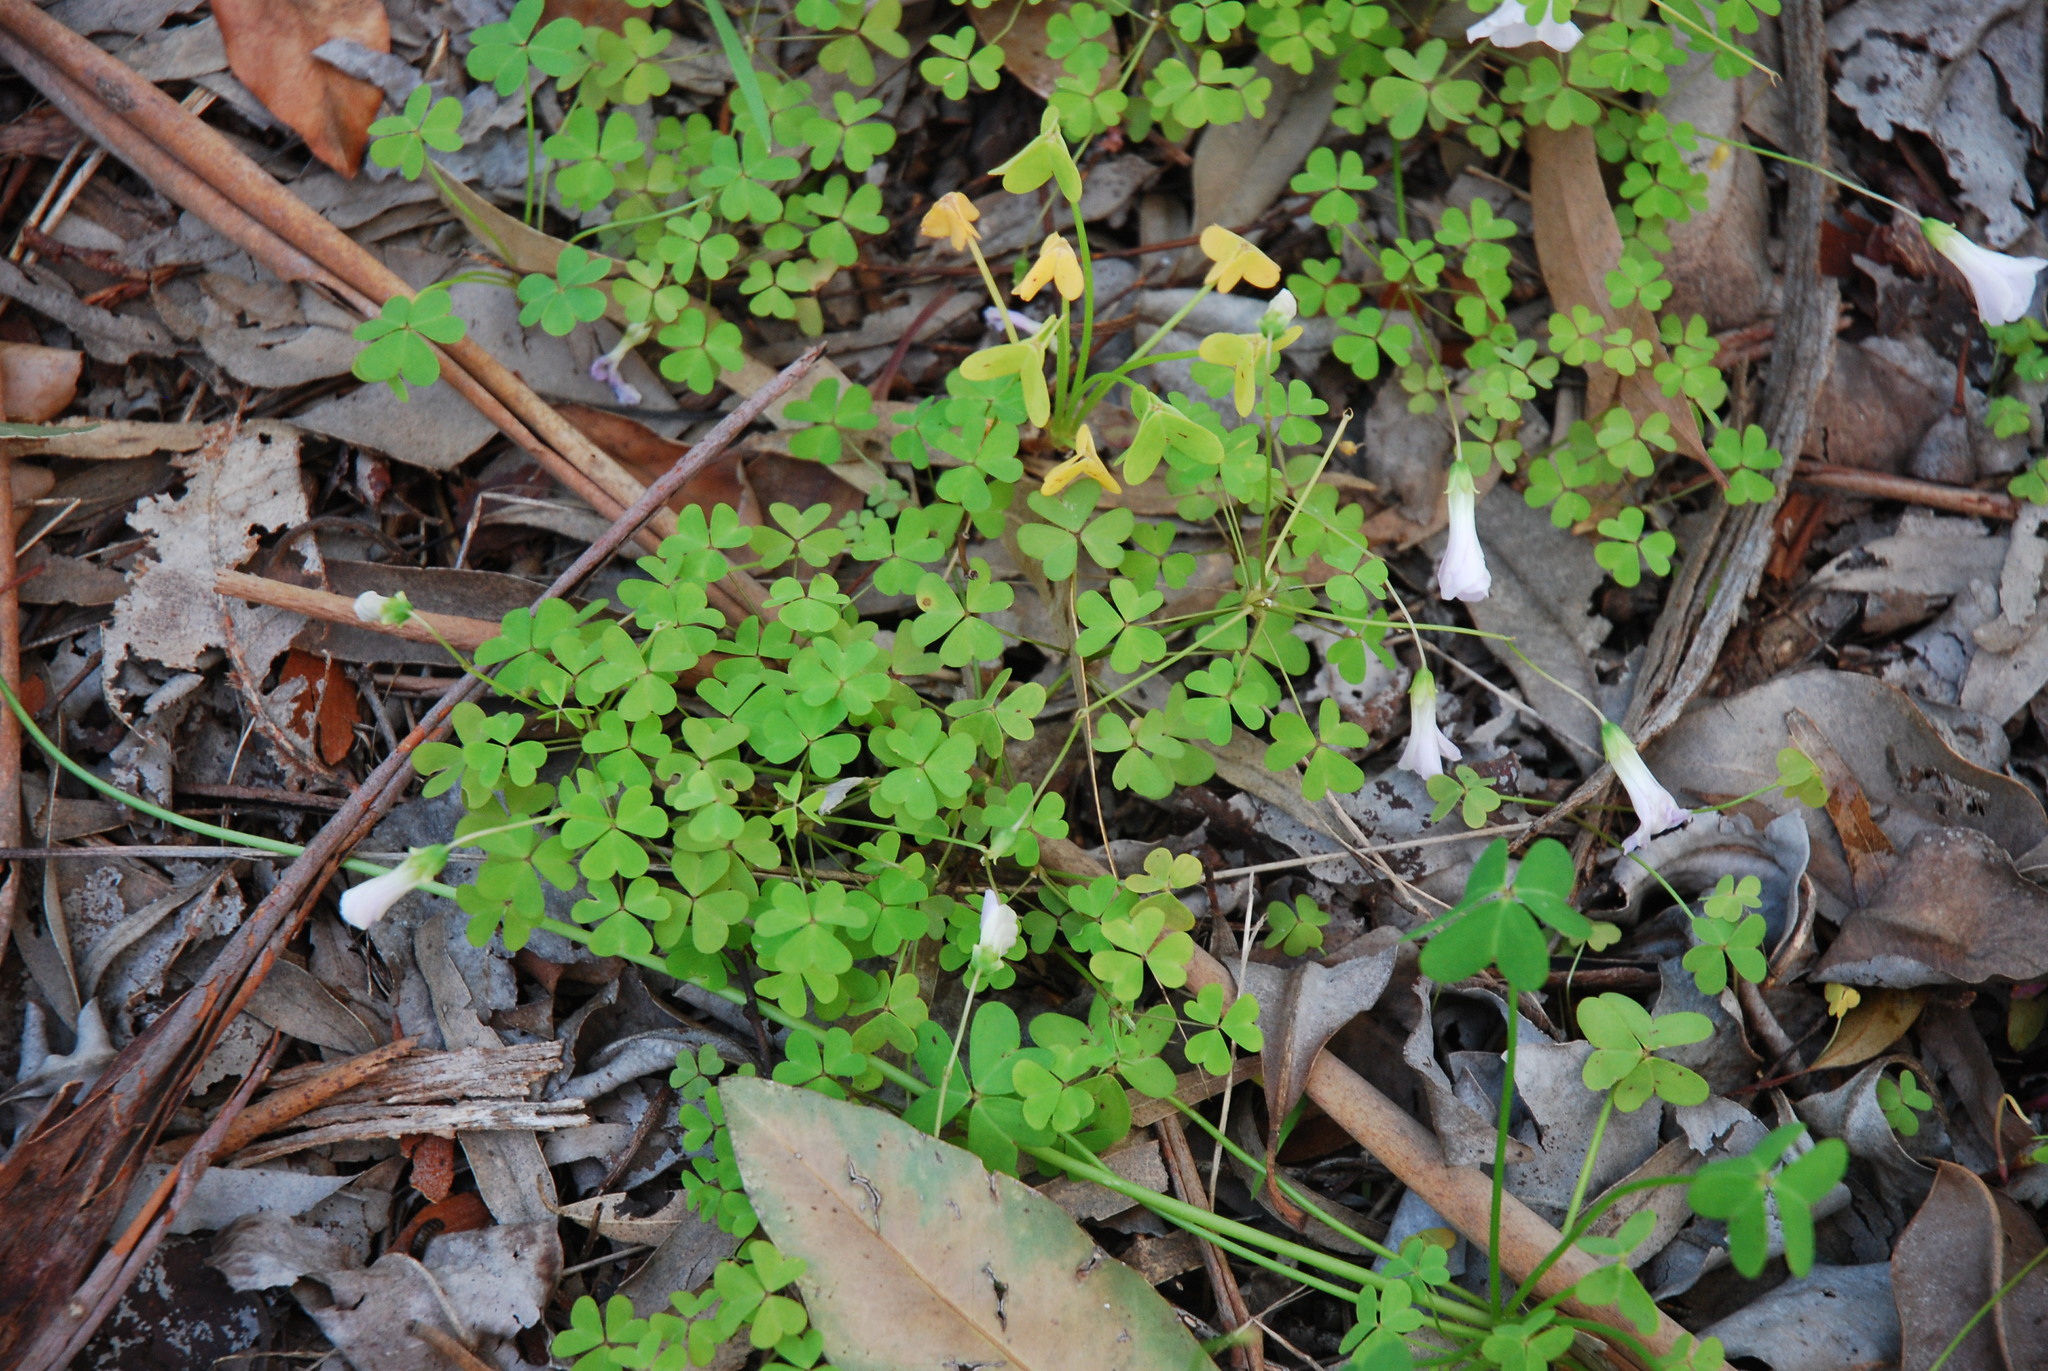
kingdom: Plantae
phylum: Tracheophyta
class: Magnoliopsida
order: Oxalidales
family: Oxalidaceae
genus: Oxalis
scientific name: Oxalis incarnata
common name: Pale pink-sorrel
